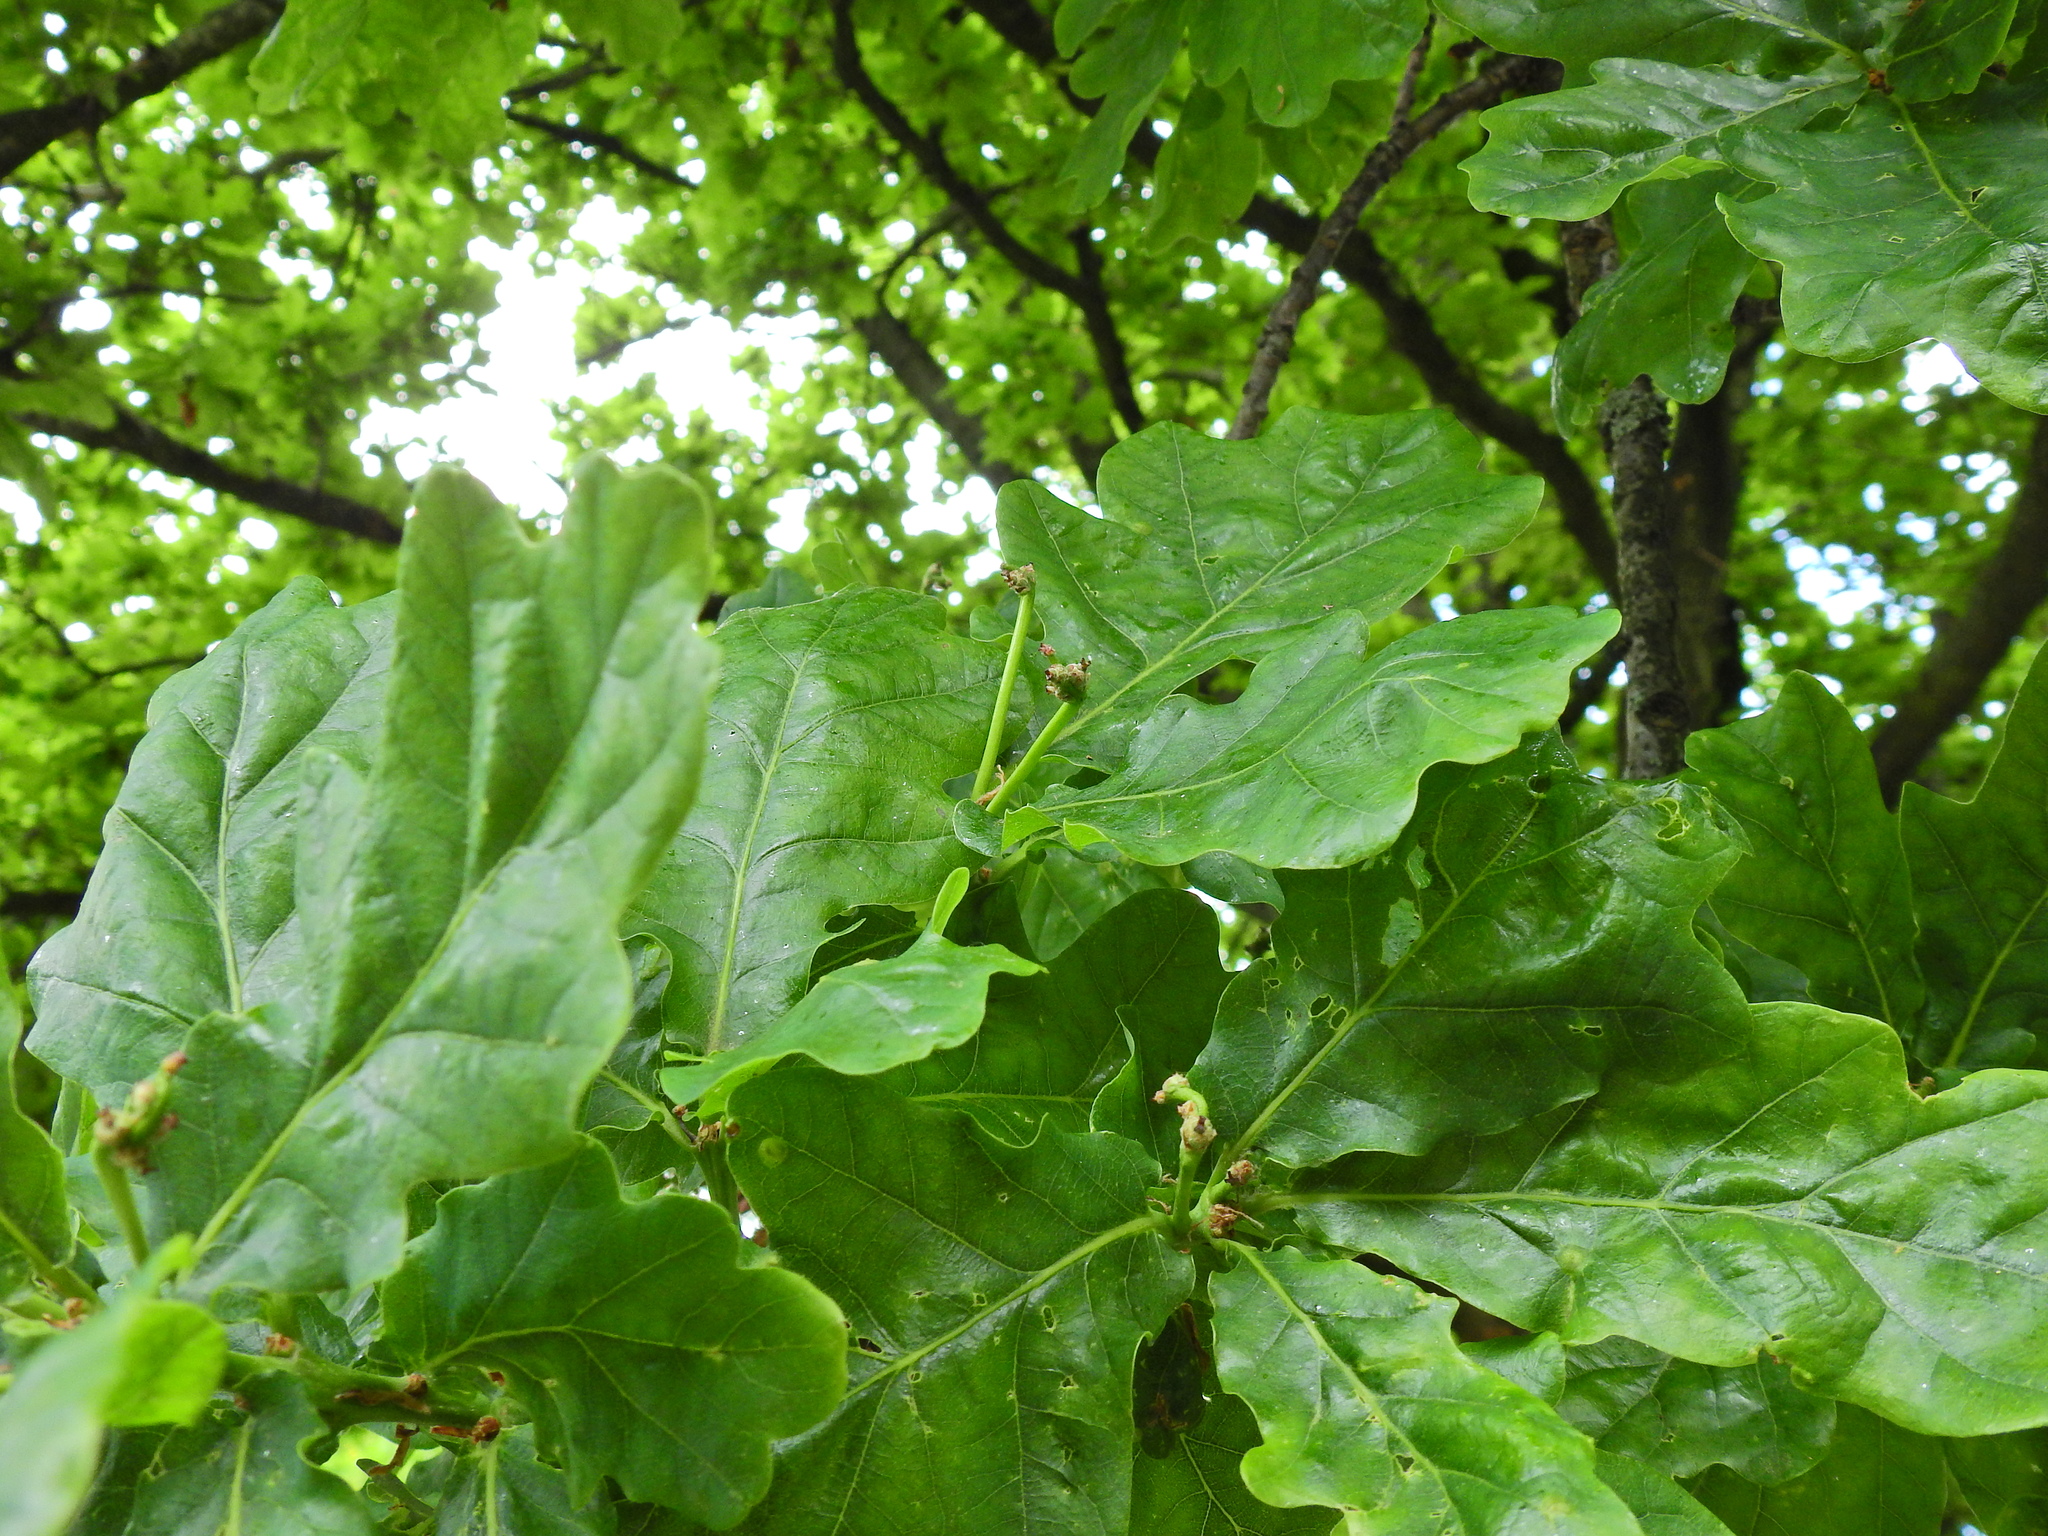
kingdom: Plantae
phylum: Tracheophyta
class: Magnoliopsida
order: Fagales
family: Fagaceae
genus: Quercus
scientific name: Quercus robur
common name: Pedunculate oak
